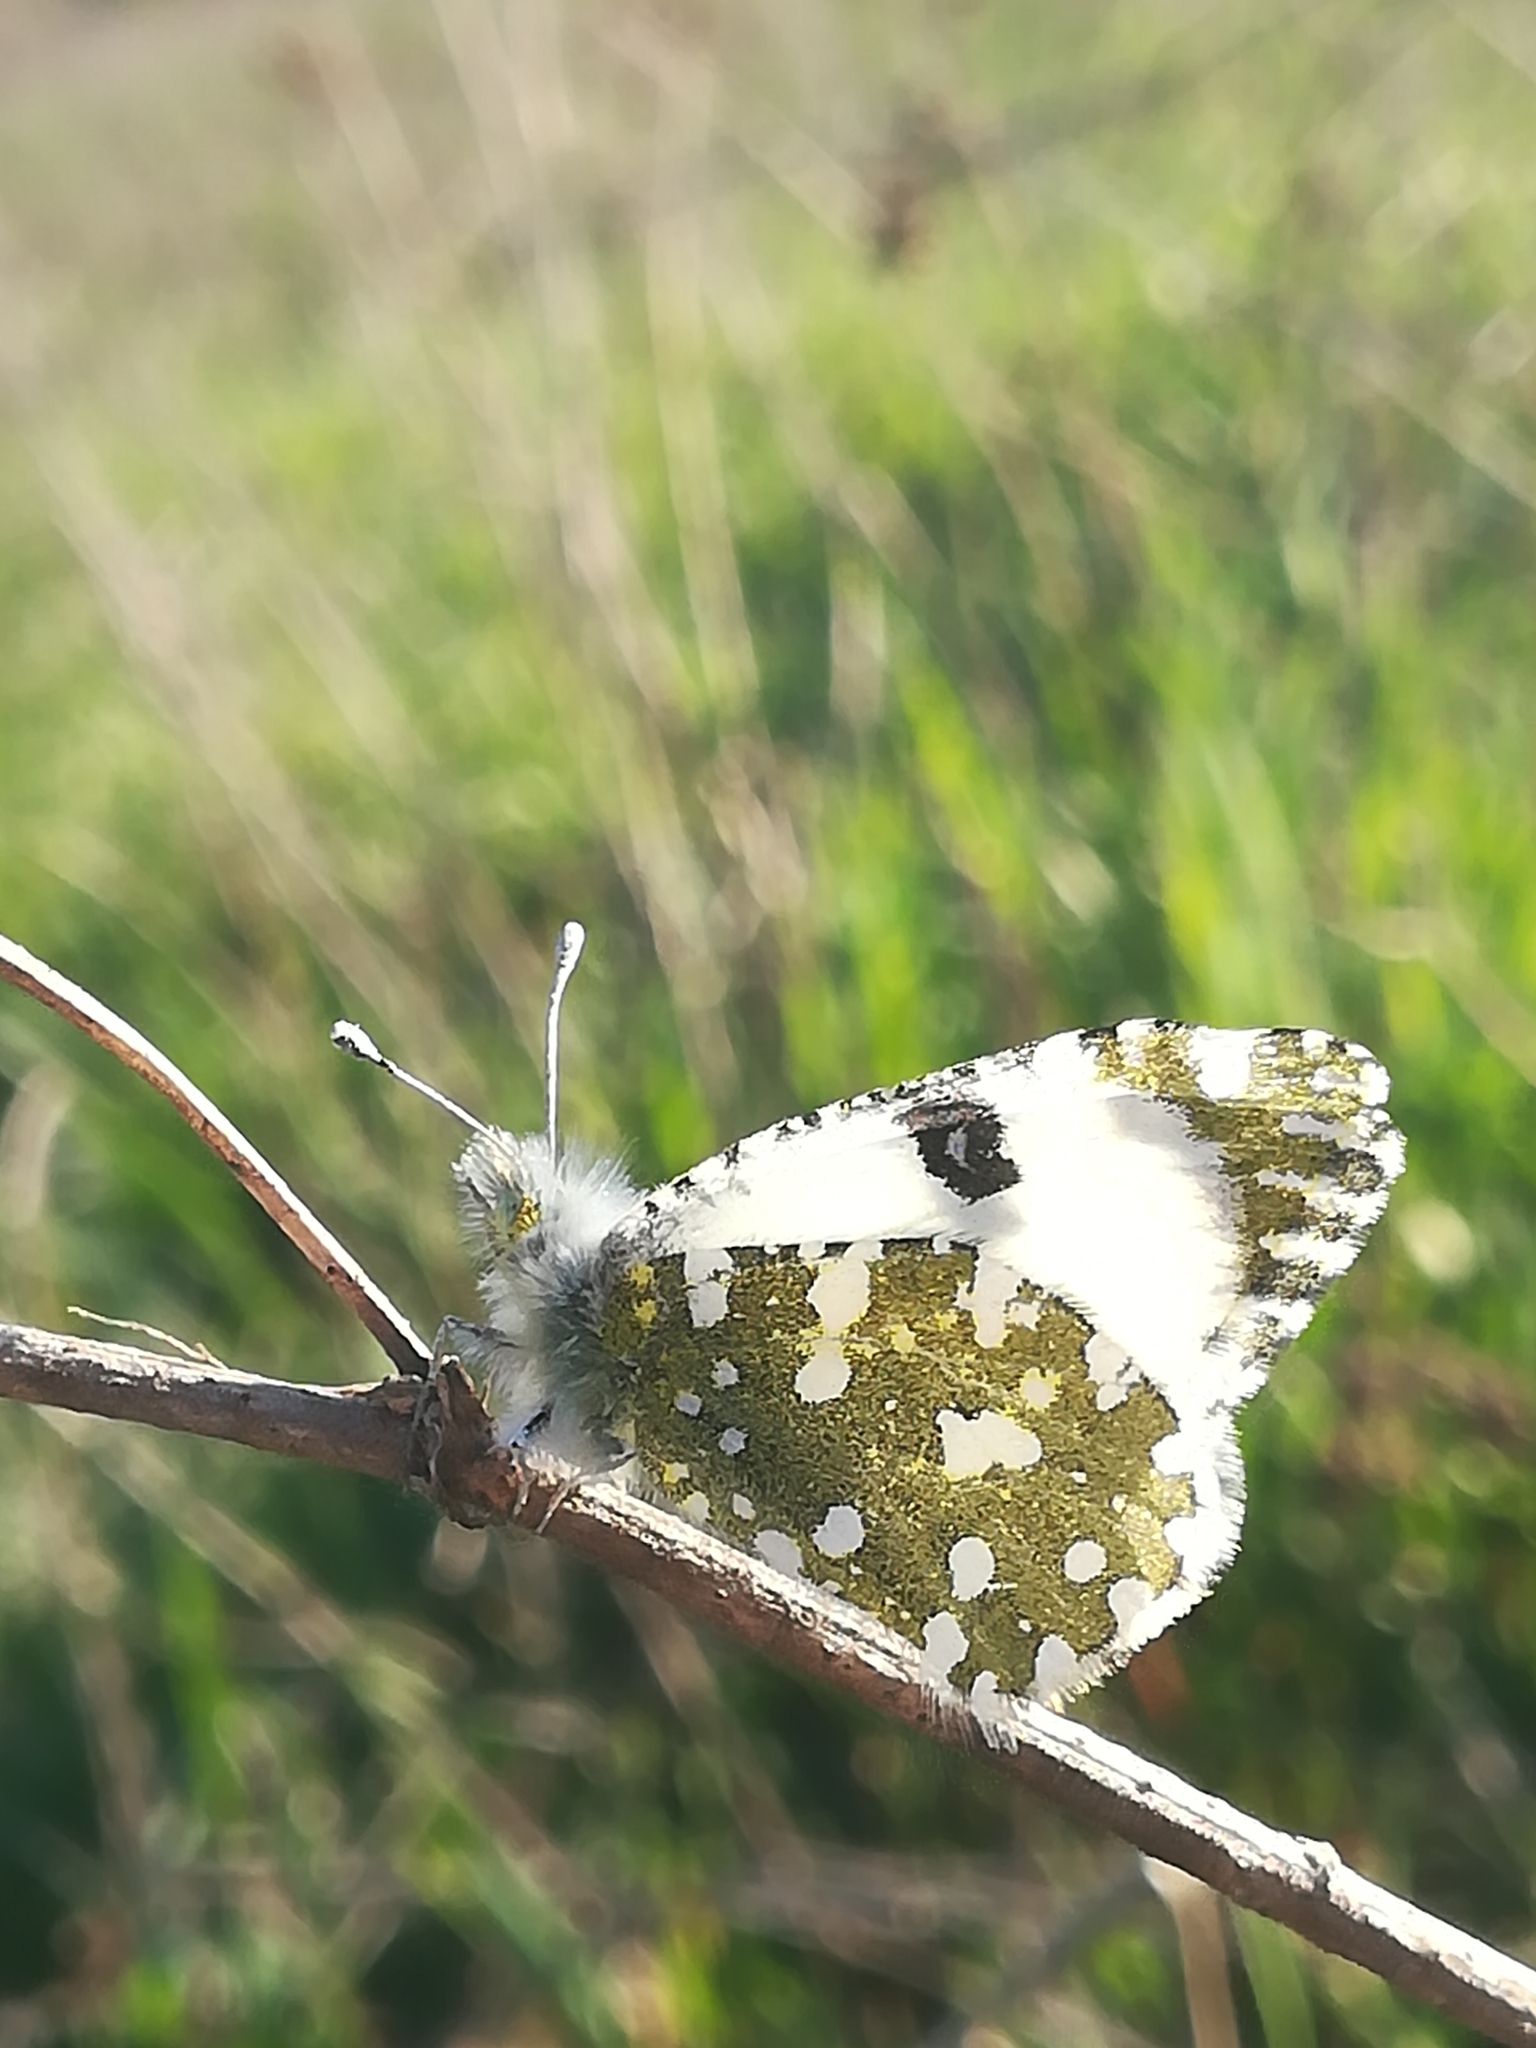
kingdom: Animalia
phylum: Arthropoda
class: Insecta
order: Lepidoptera
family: Pieridae
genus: Euchloe
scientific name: Euchloe ausonia
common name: Eastern dappled white
